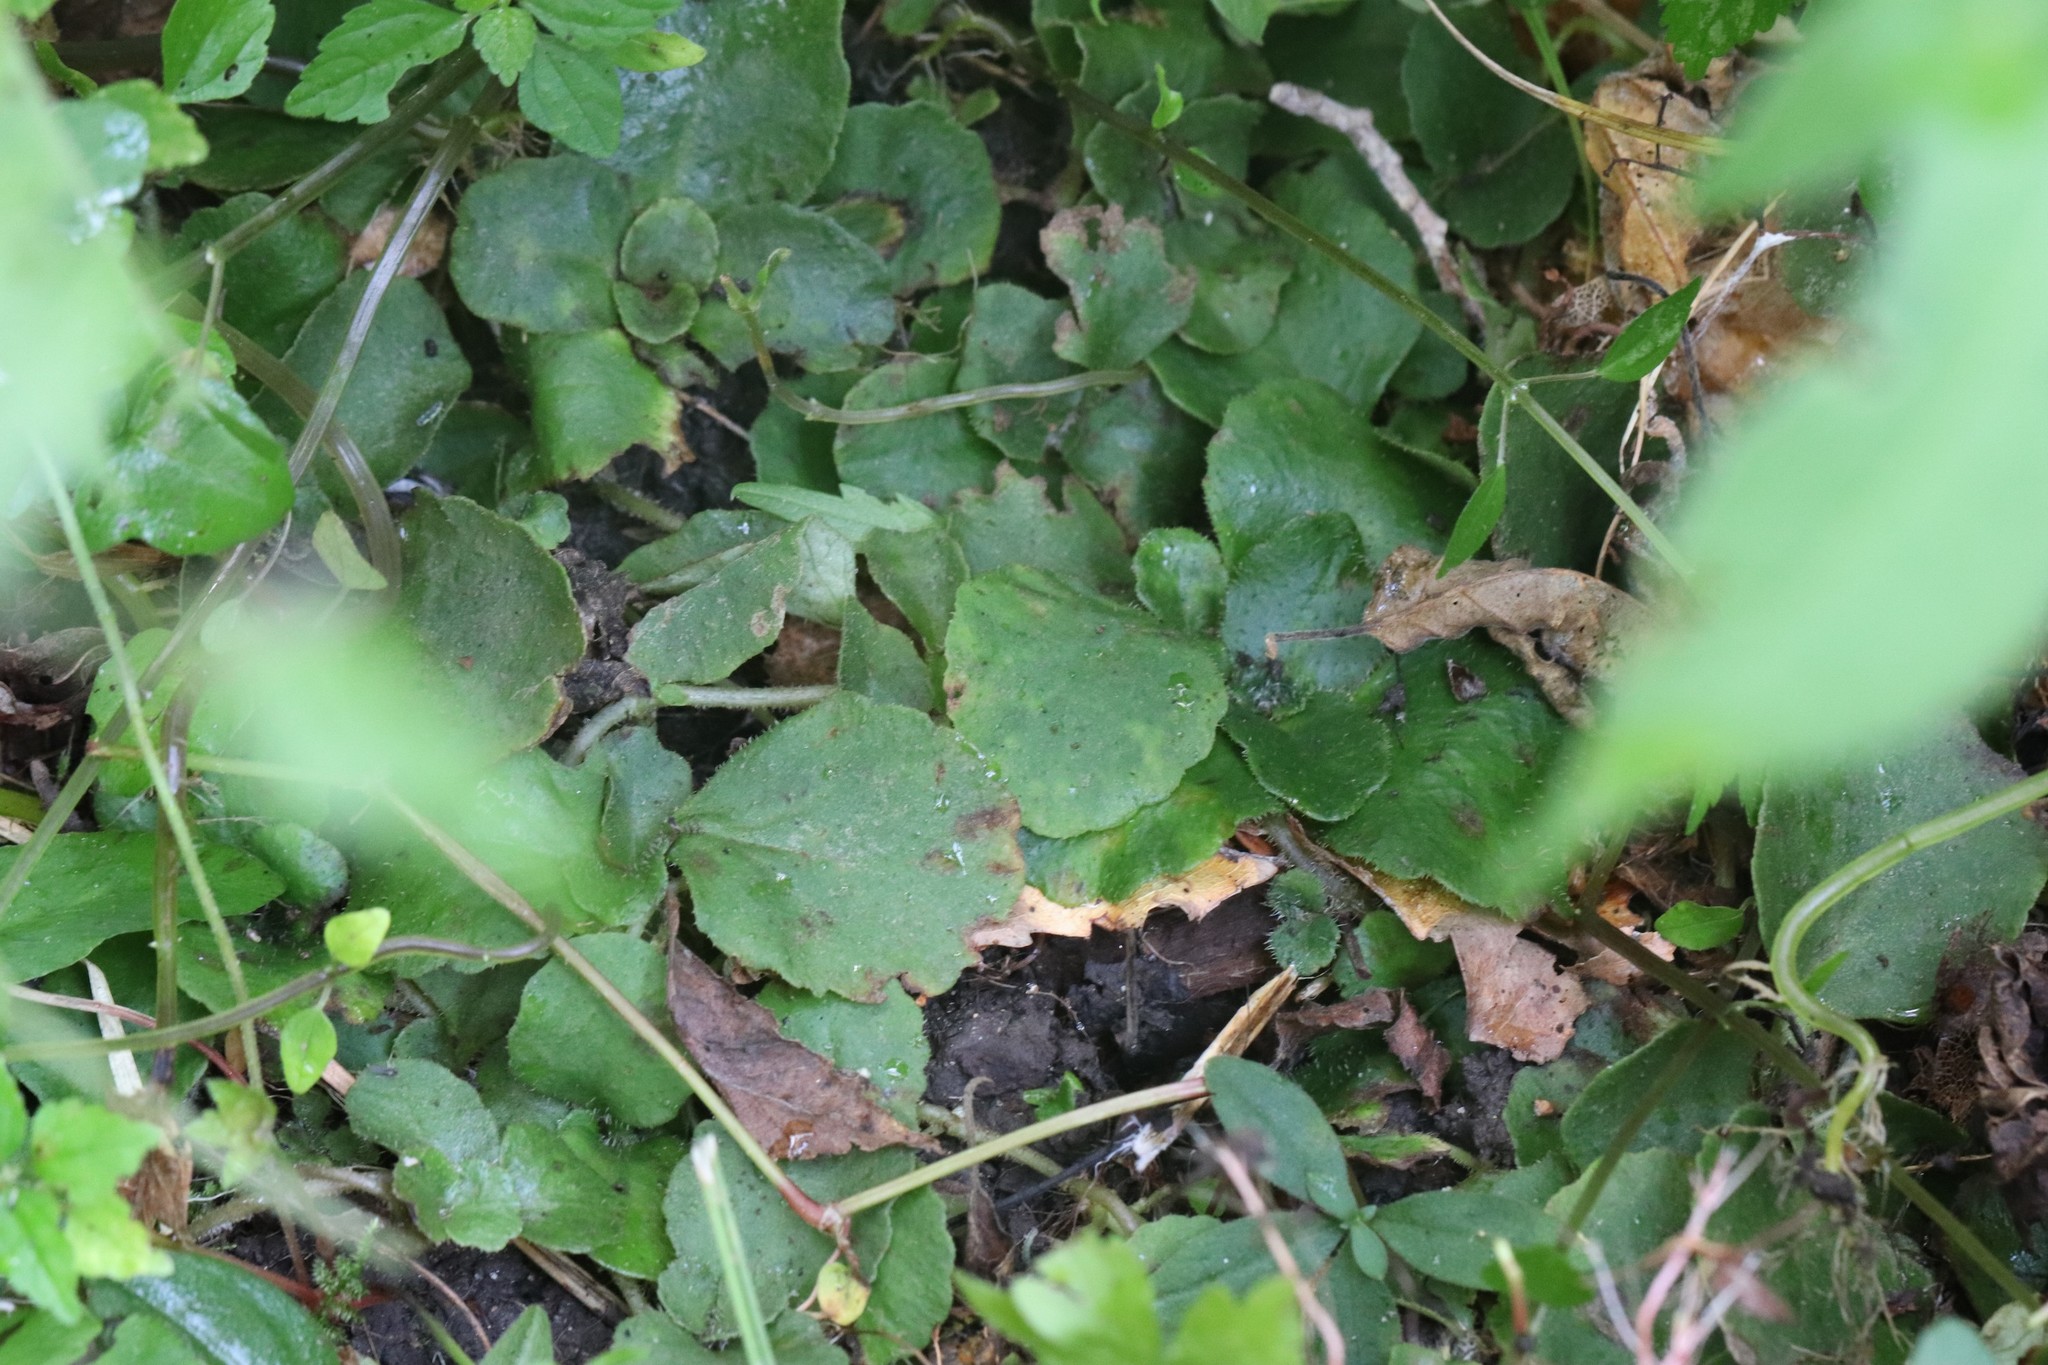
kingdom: Plantae
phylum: Tracheophyta
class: Magnoliopsida
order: Saxifragales
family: Saxifragaceae
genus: Chrysosplenium
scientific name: Chrysosplenium pilosum
